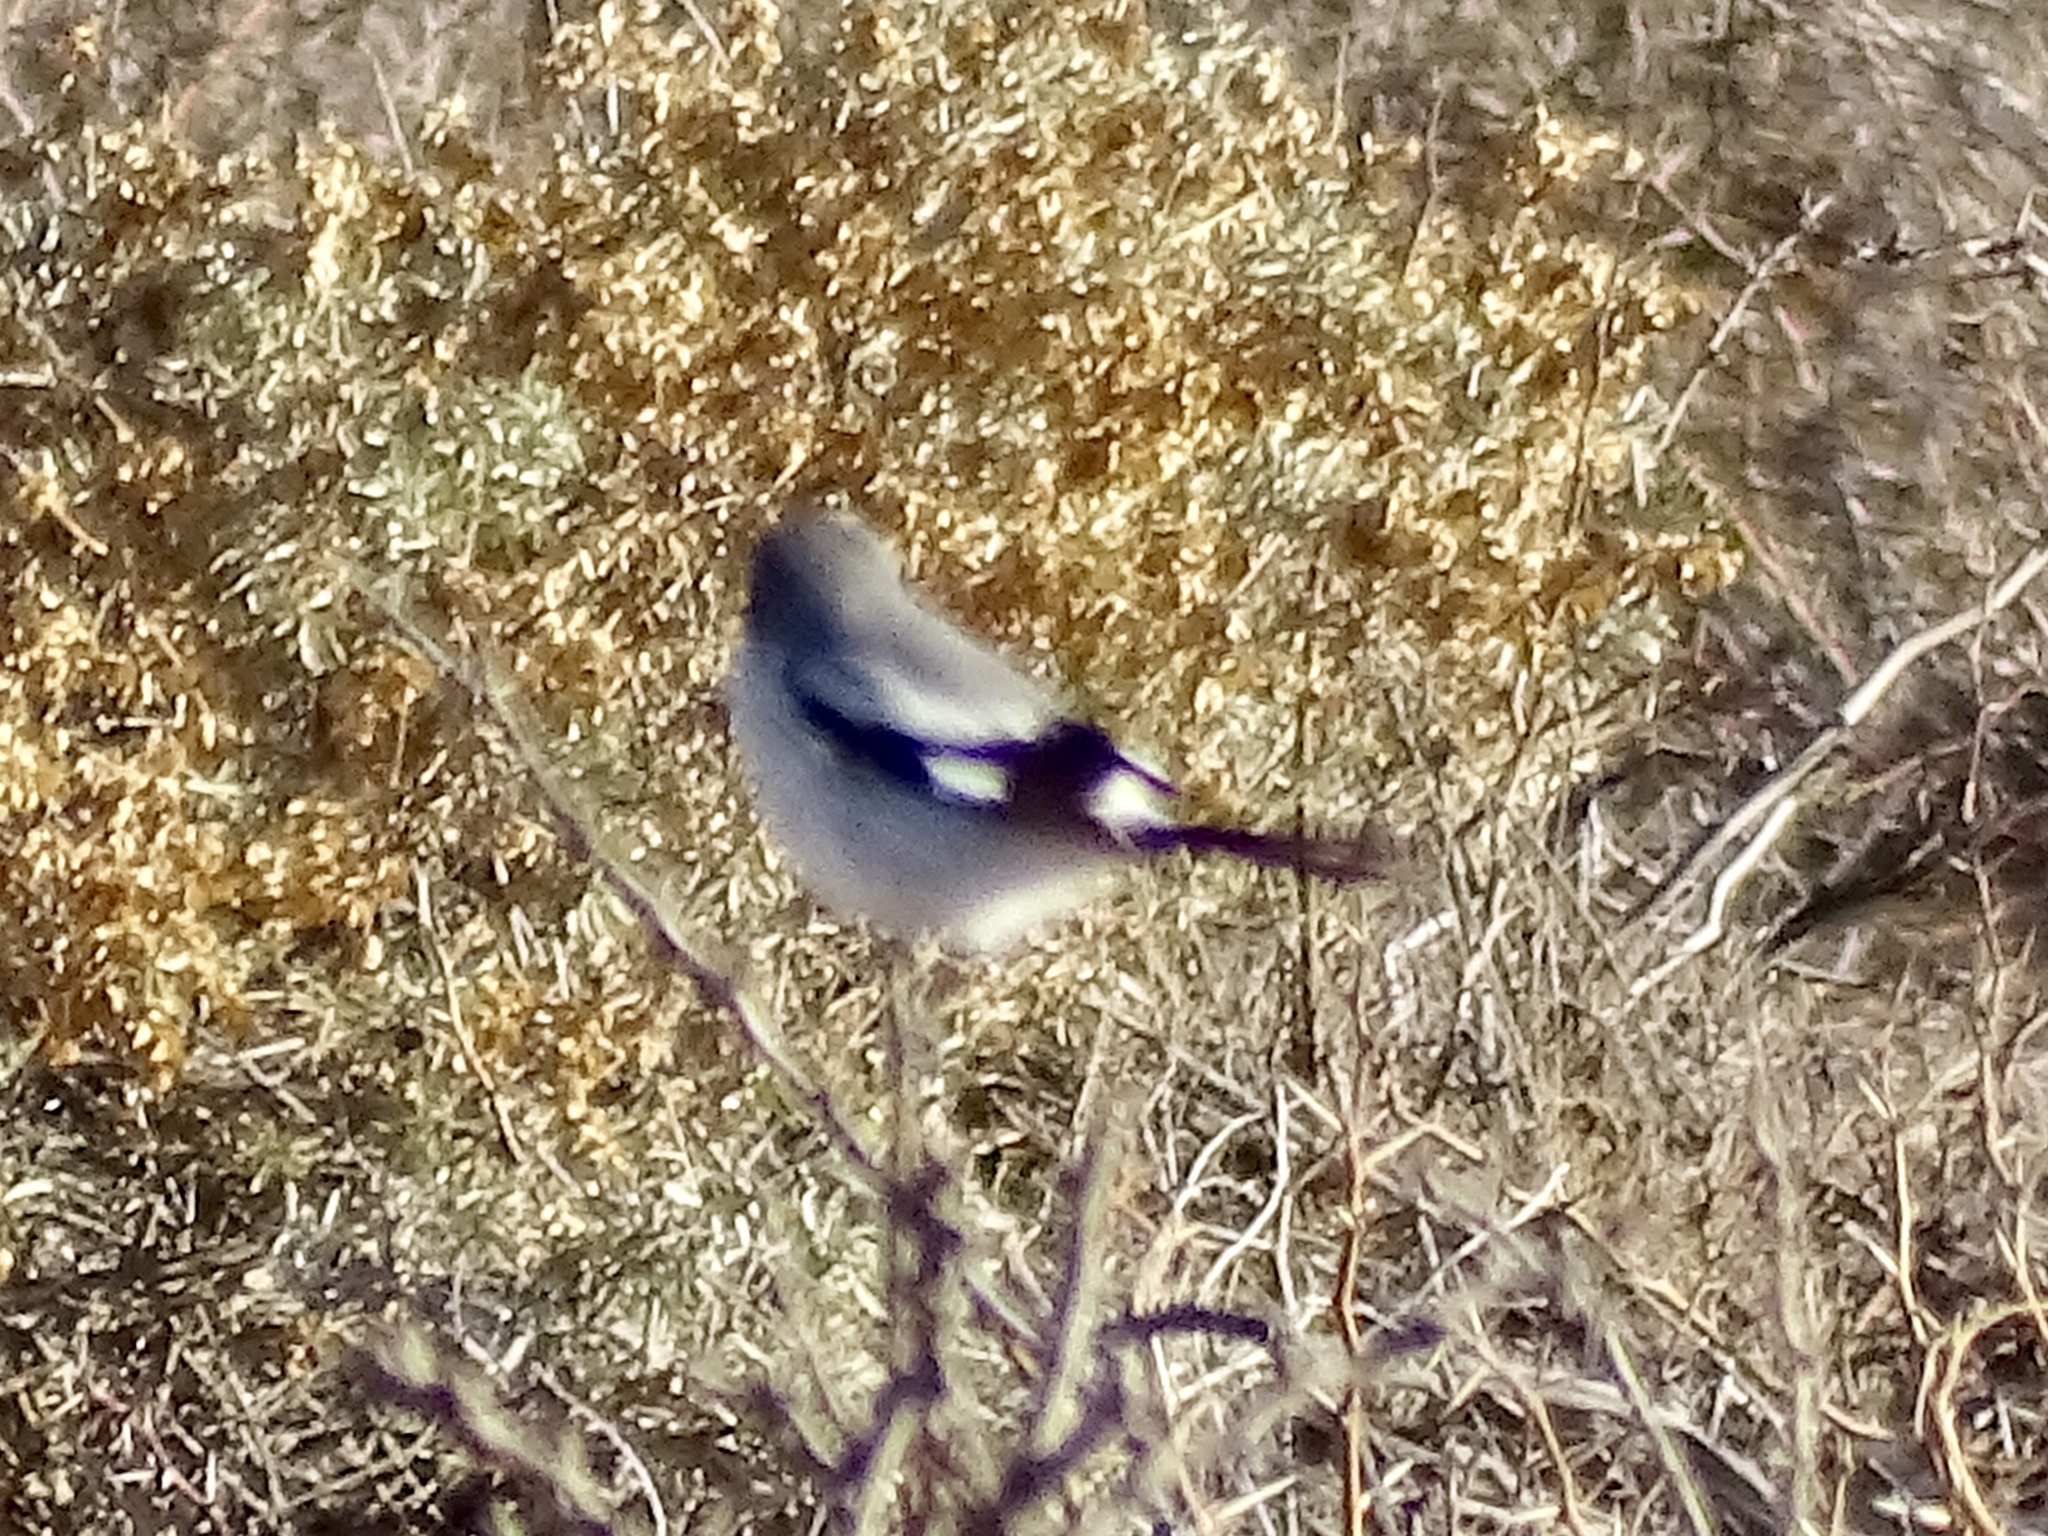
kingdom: Animalia
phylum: Chordata
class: Aves
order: Passeriformes
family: Laniidae
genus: Lanius
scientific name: Lanius ludovicianus
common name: Loggerhead shrike
